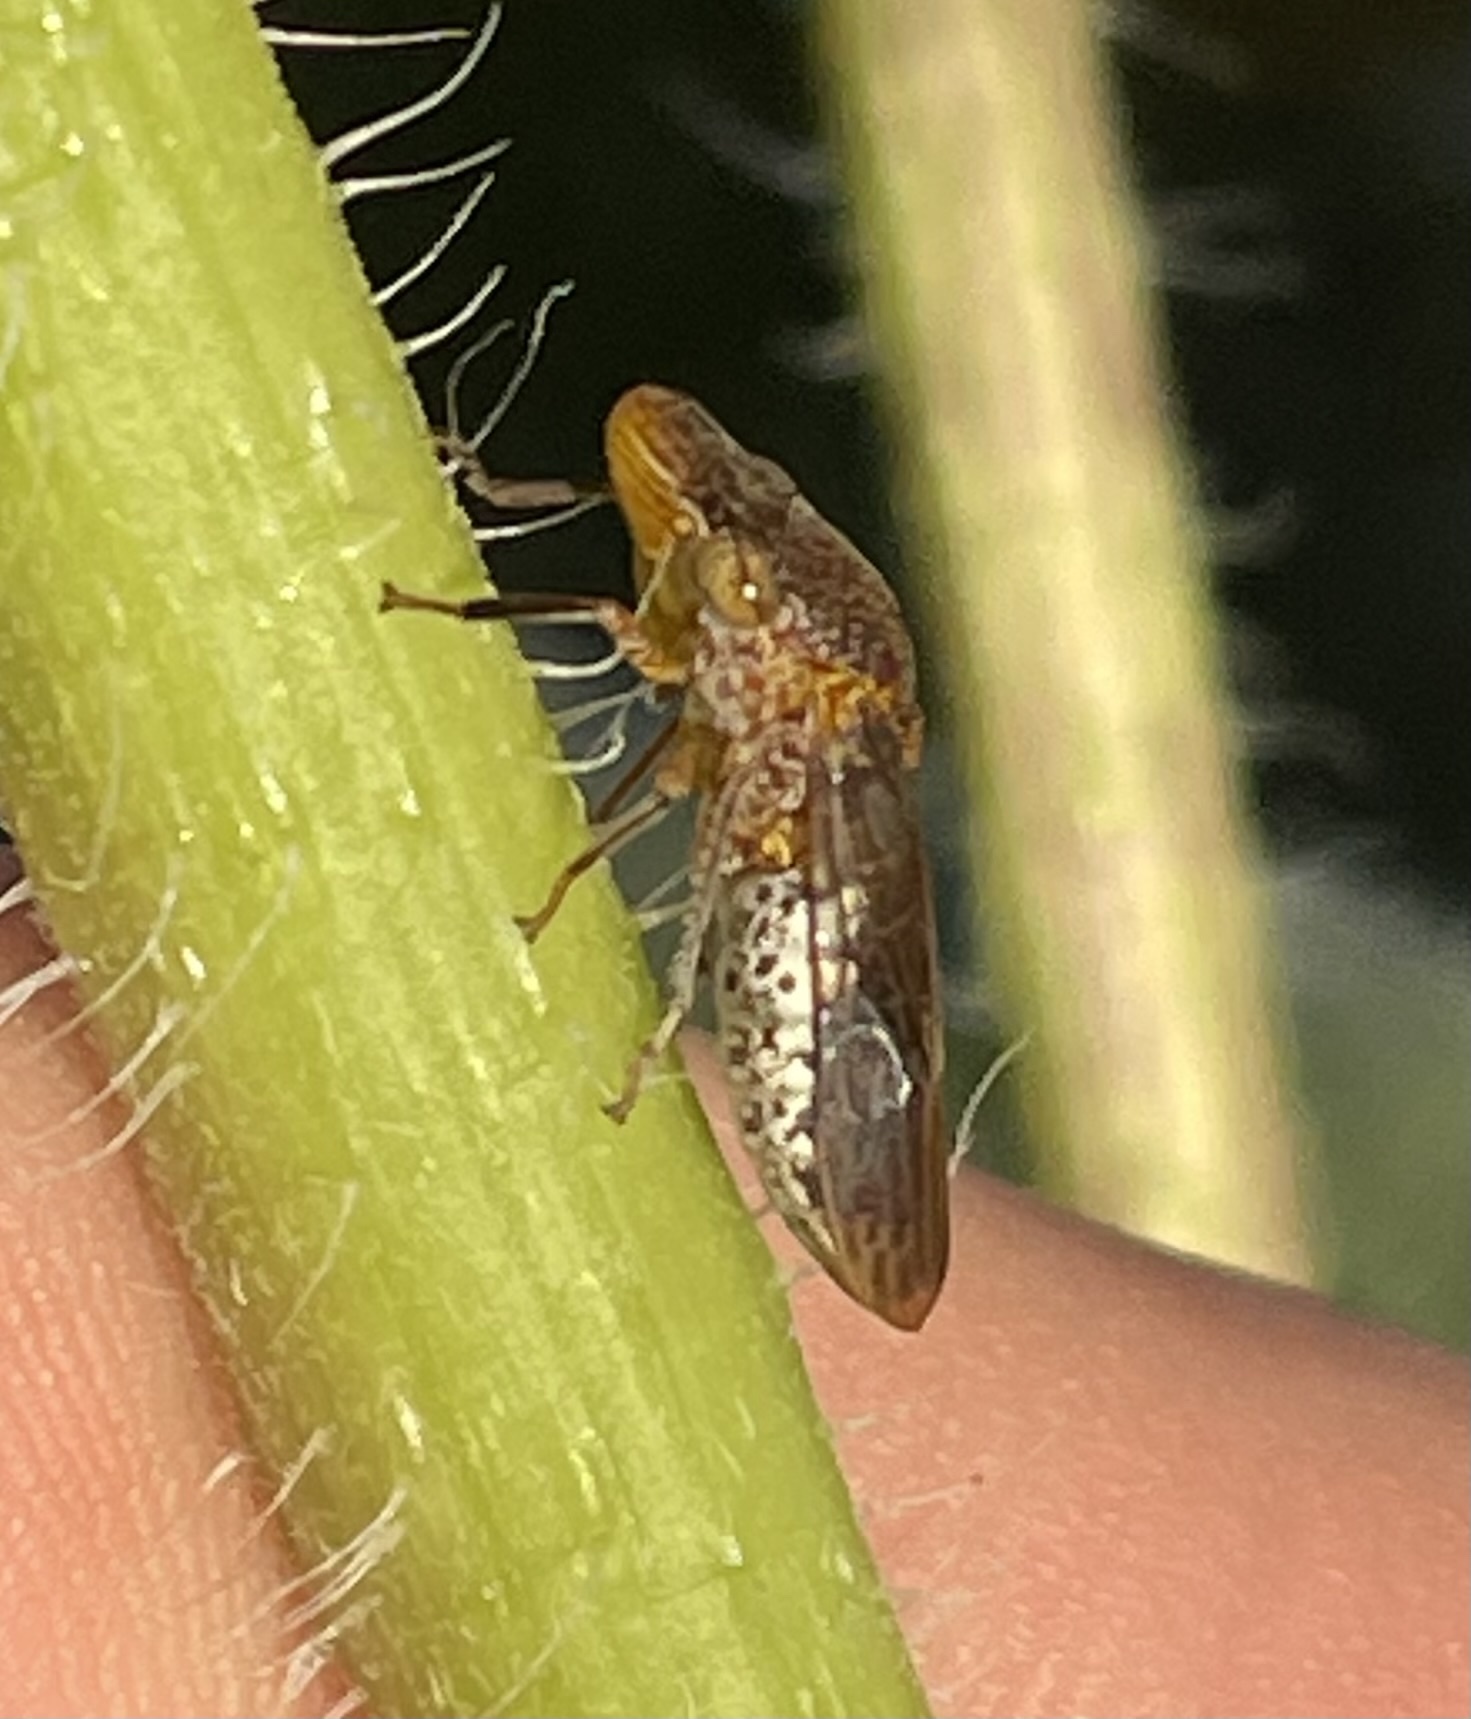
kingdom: Animalia
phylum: Arthropoda
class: Insecta
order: Hemiptera
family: Cicadellidae
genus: Homalodisca
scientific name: Homalodisca vitripennis
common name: Glassy-winged sharpshooter
